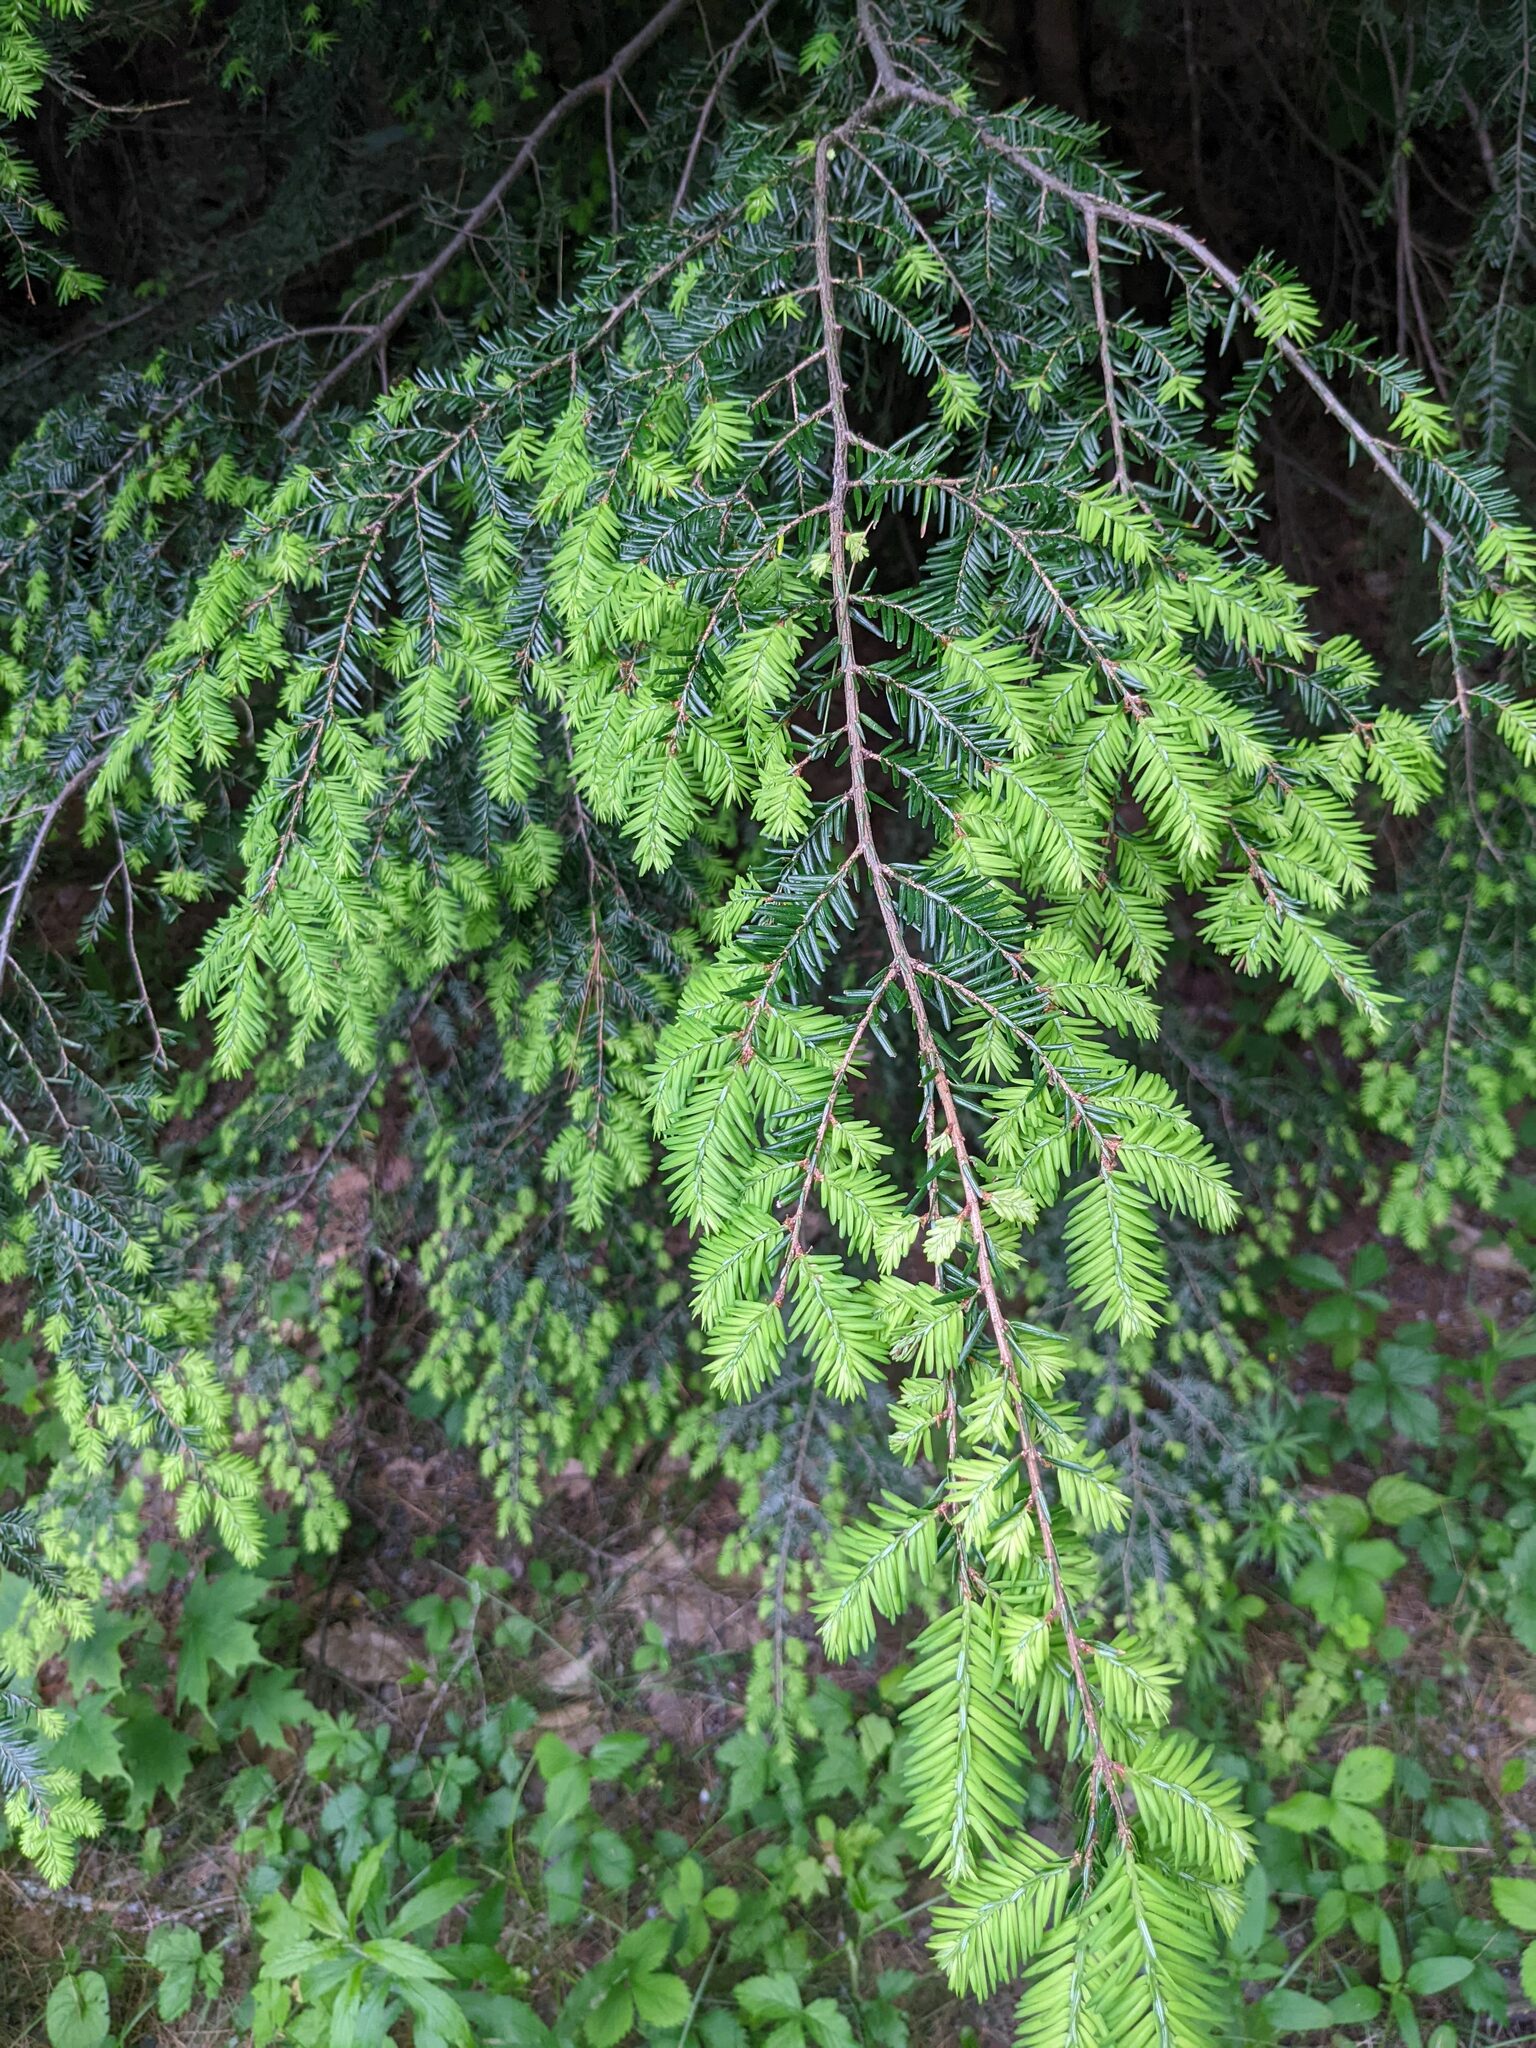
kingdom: Plantae
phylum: Tracheophyta
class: Pinopsida
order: Pinales
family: Pinaceae
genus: Tsuga
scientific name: Tsuga canadensis
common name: Eastern hemlock
